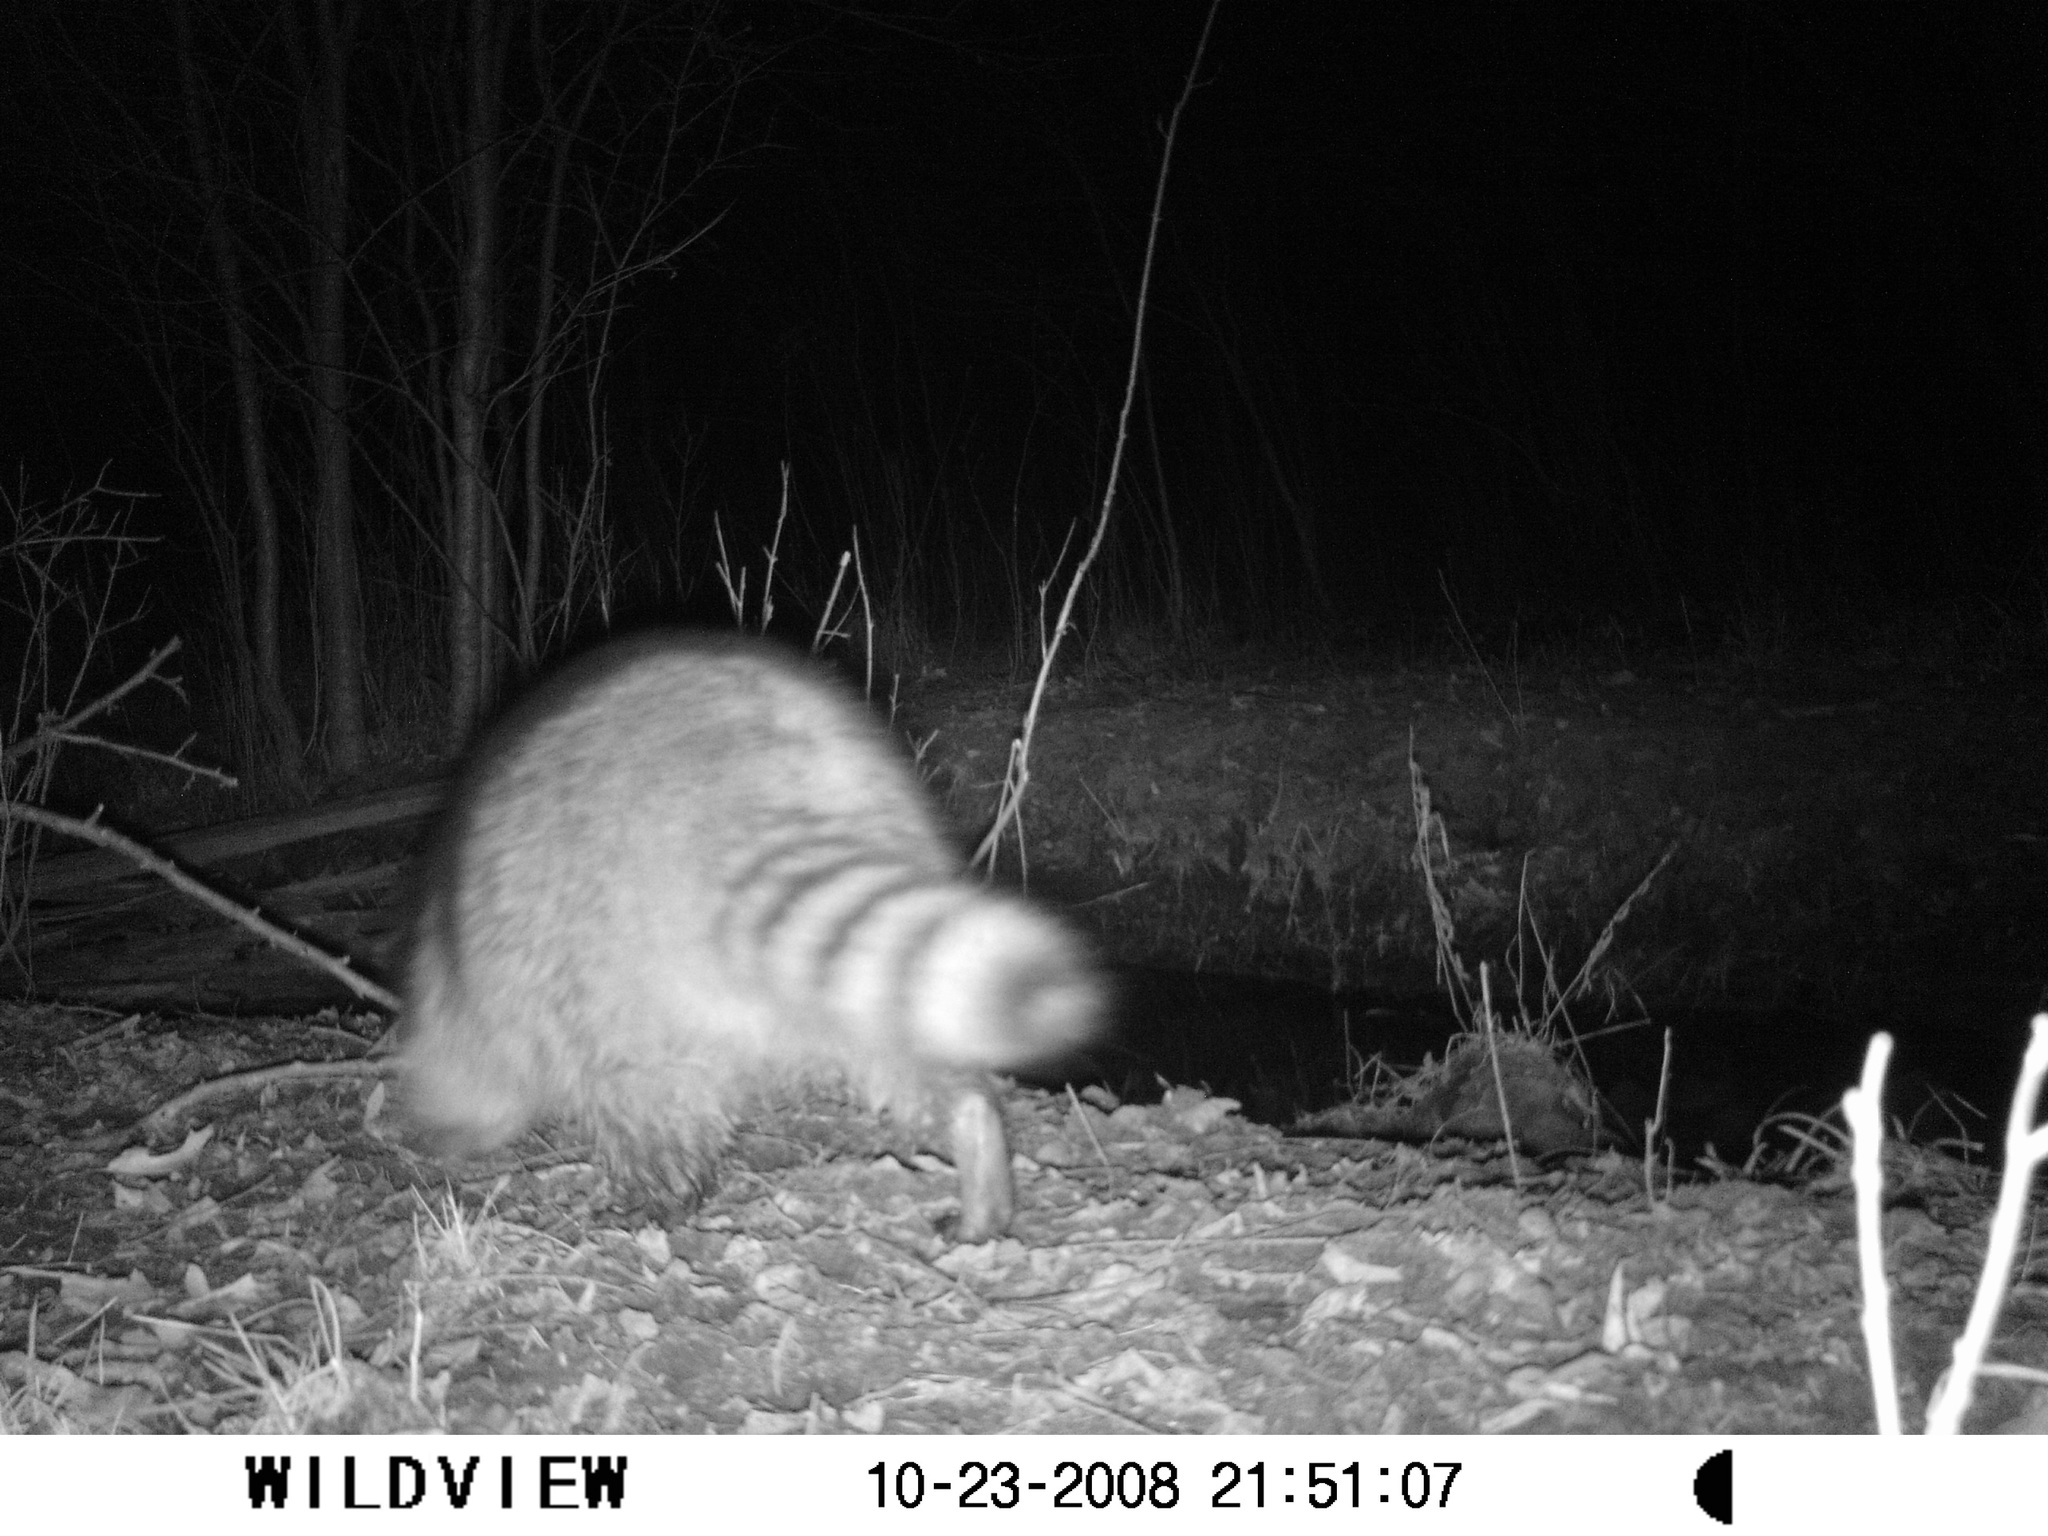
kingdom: Animalia
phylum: Chordata
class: Mammalia
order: Carnivora
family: Procyonidae
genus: Procyon
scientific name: Procyon lotor
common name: Raccoon
